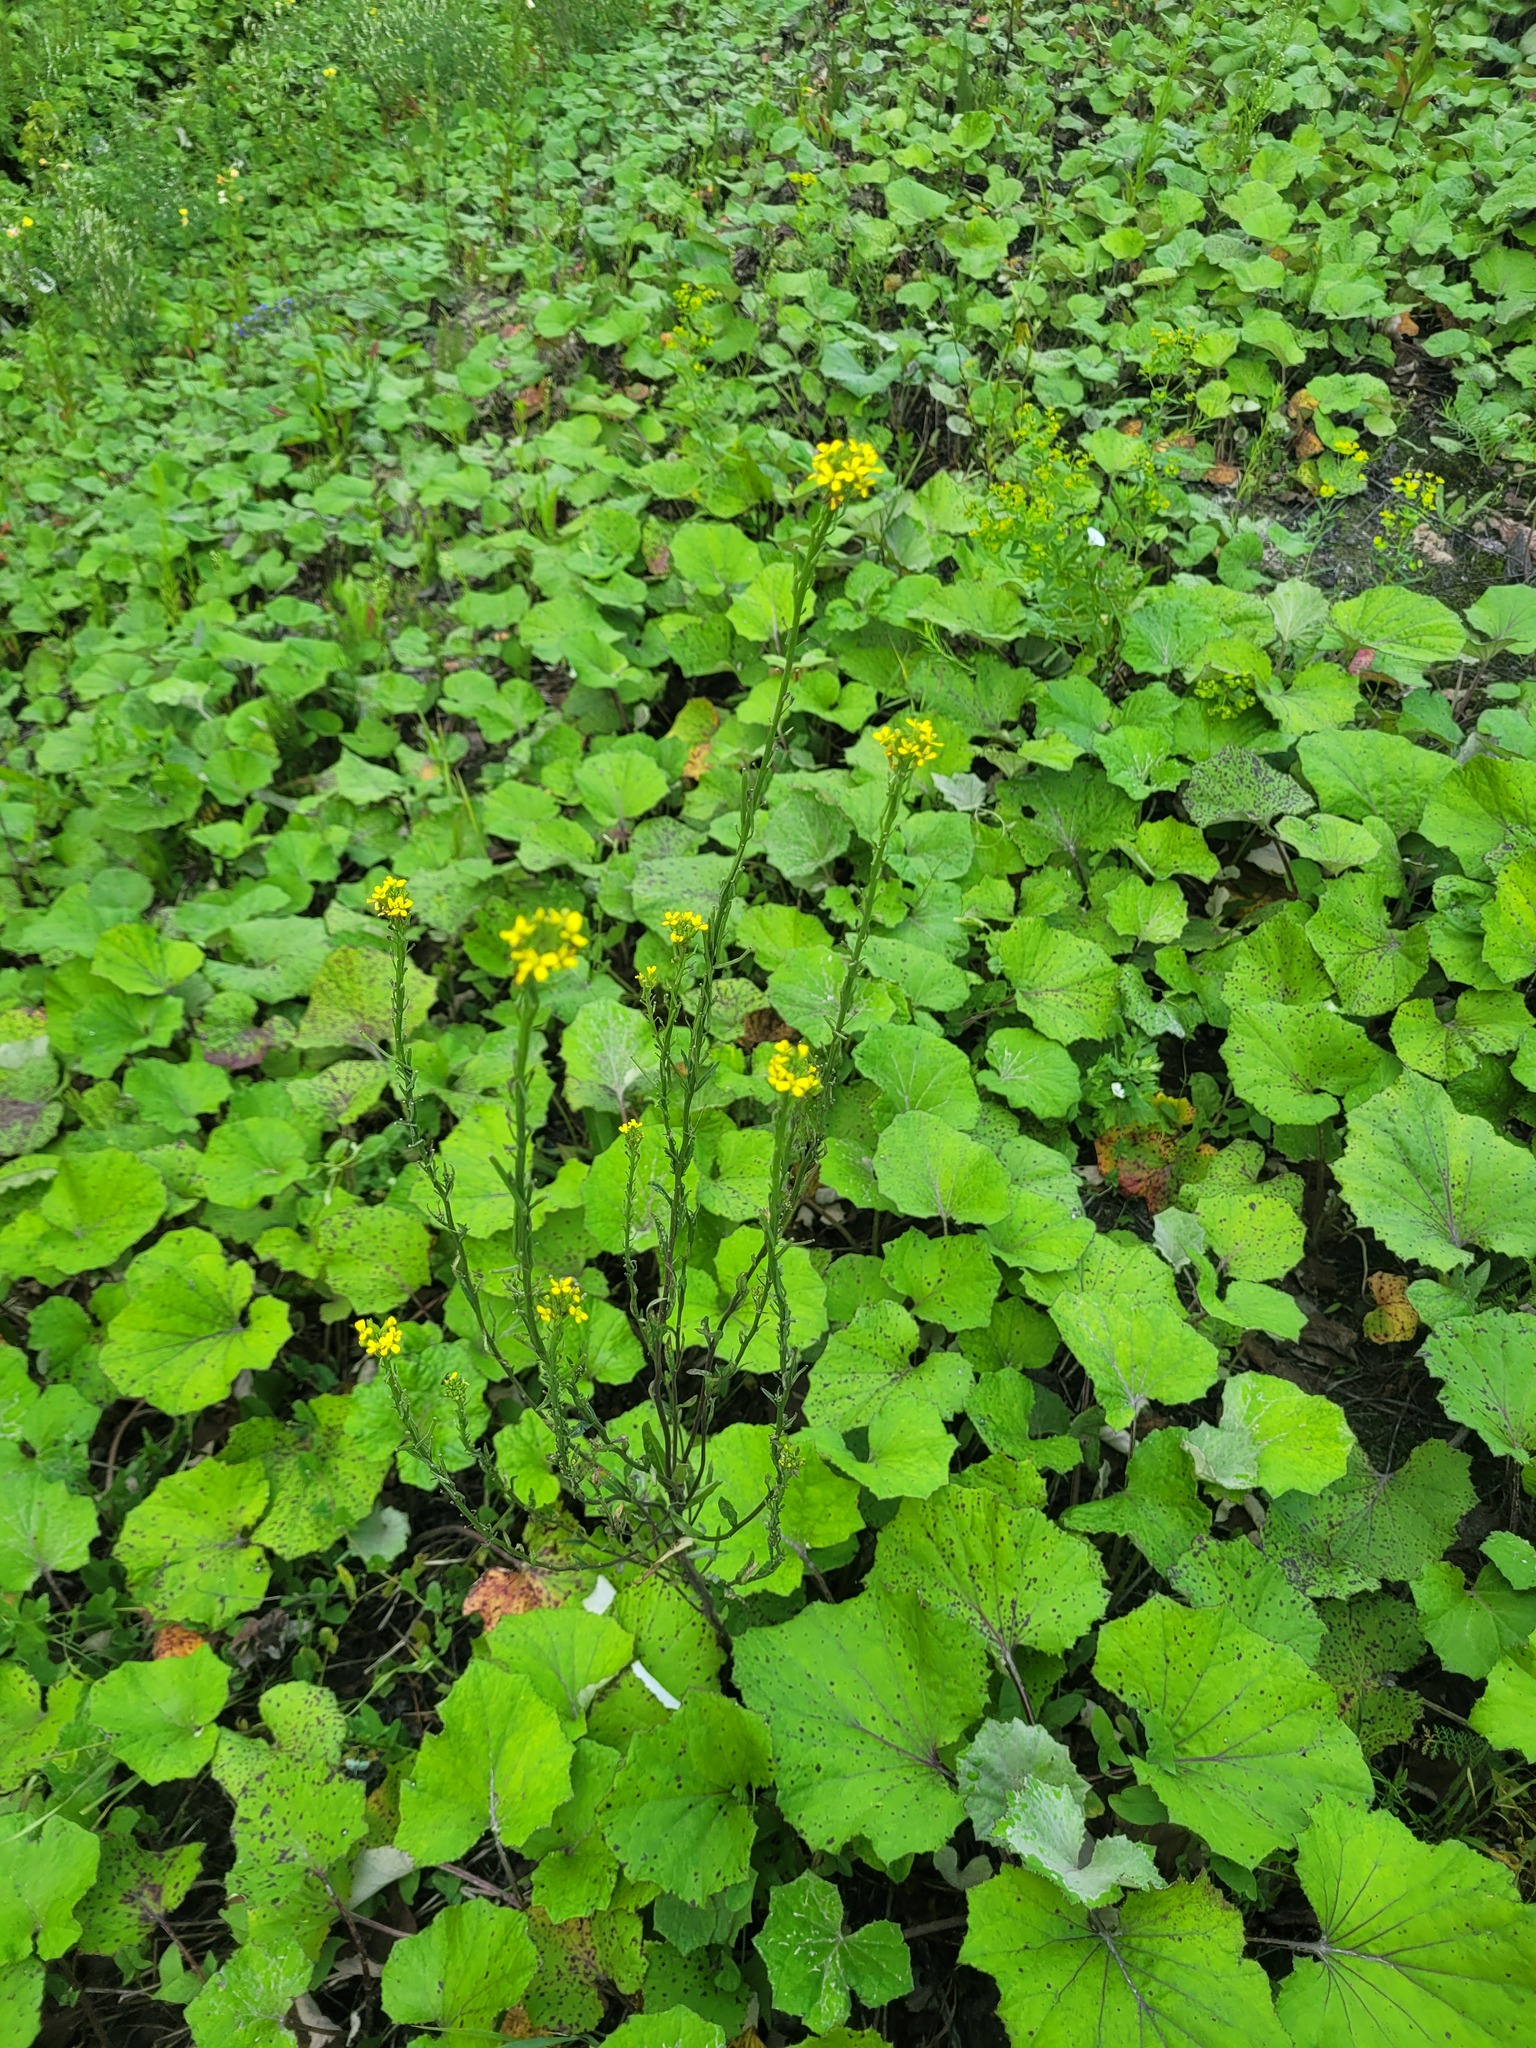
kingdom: Plantae
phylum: Tracheophyta
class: Magnoliopsida
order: Brassicales
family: Brassicaceae
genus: Erysimum
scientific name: Erysimum hieraciifolium
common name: European wallflower
